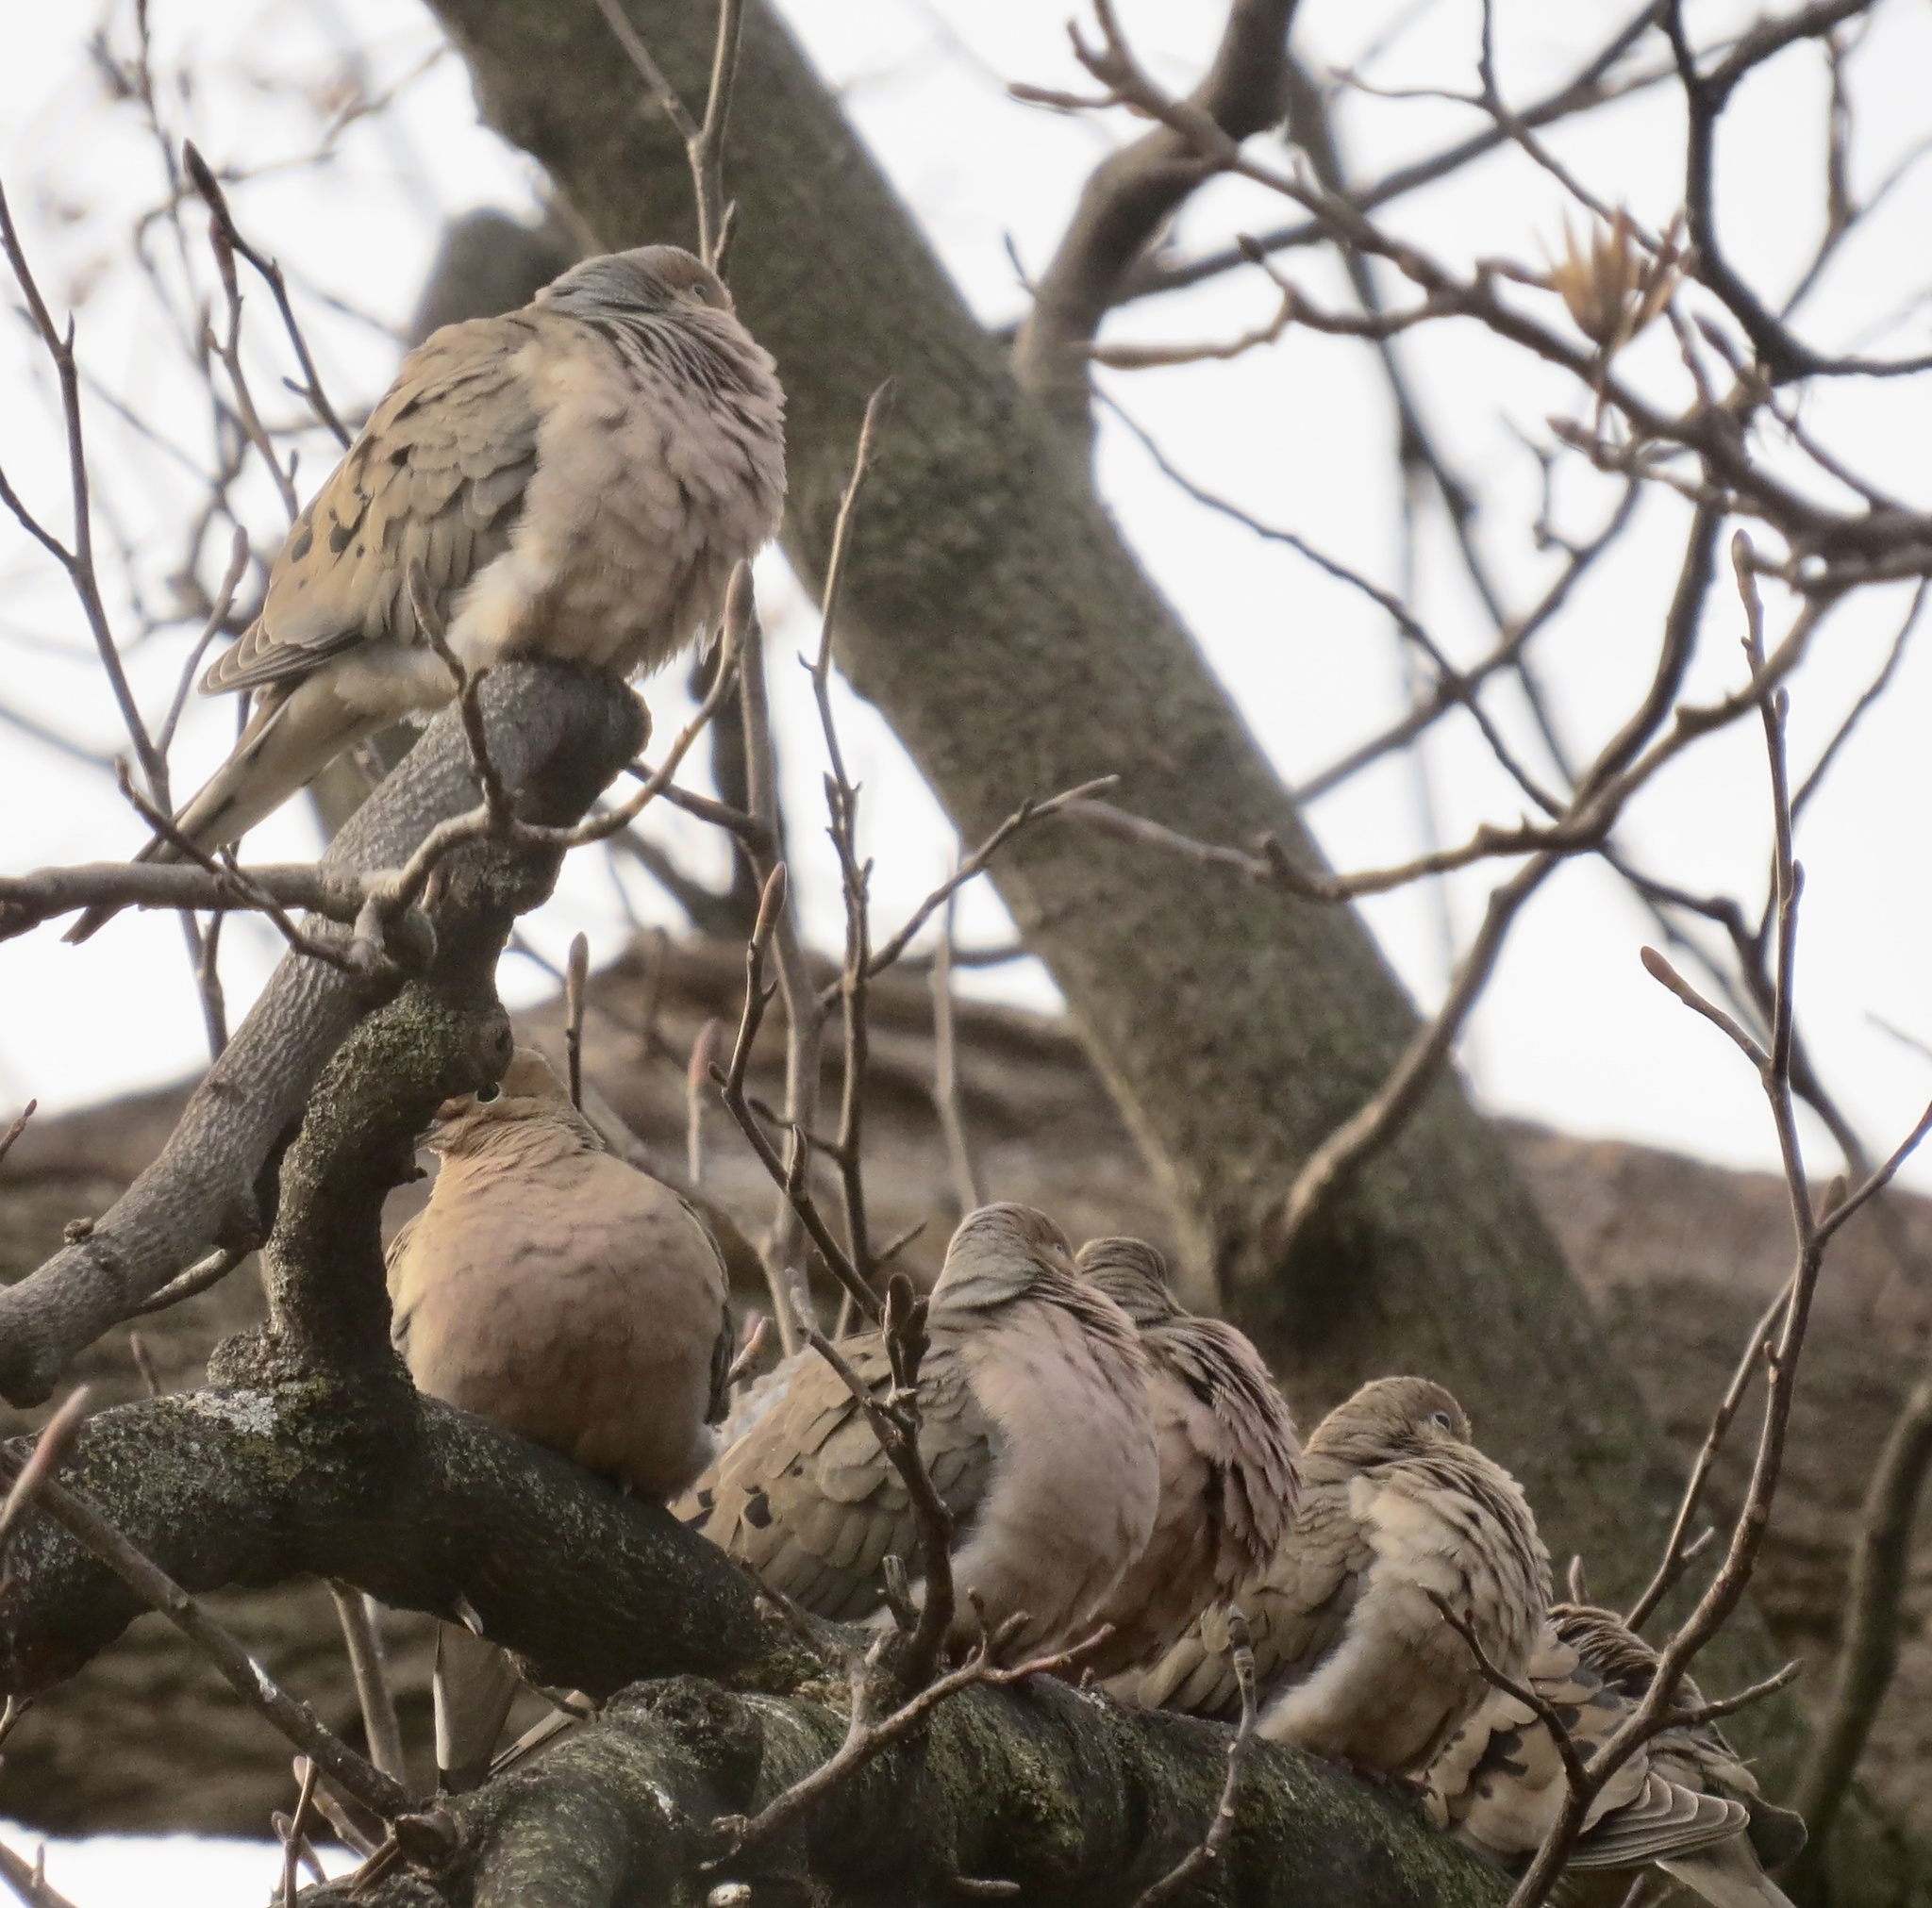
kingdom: Animalia
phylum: Chordata
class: Aves
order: Columbiformes
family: Columbidae
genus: Zenaida
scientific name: Zenaida macroura
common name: Mourning dove
